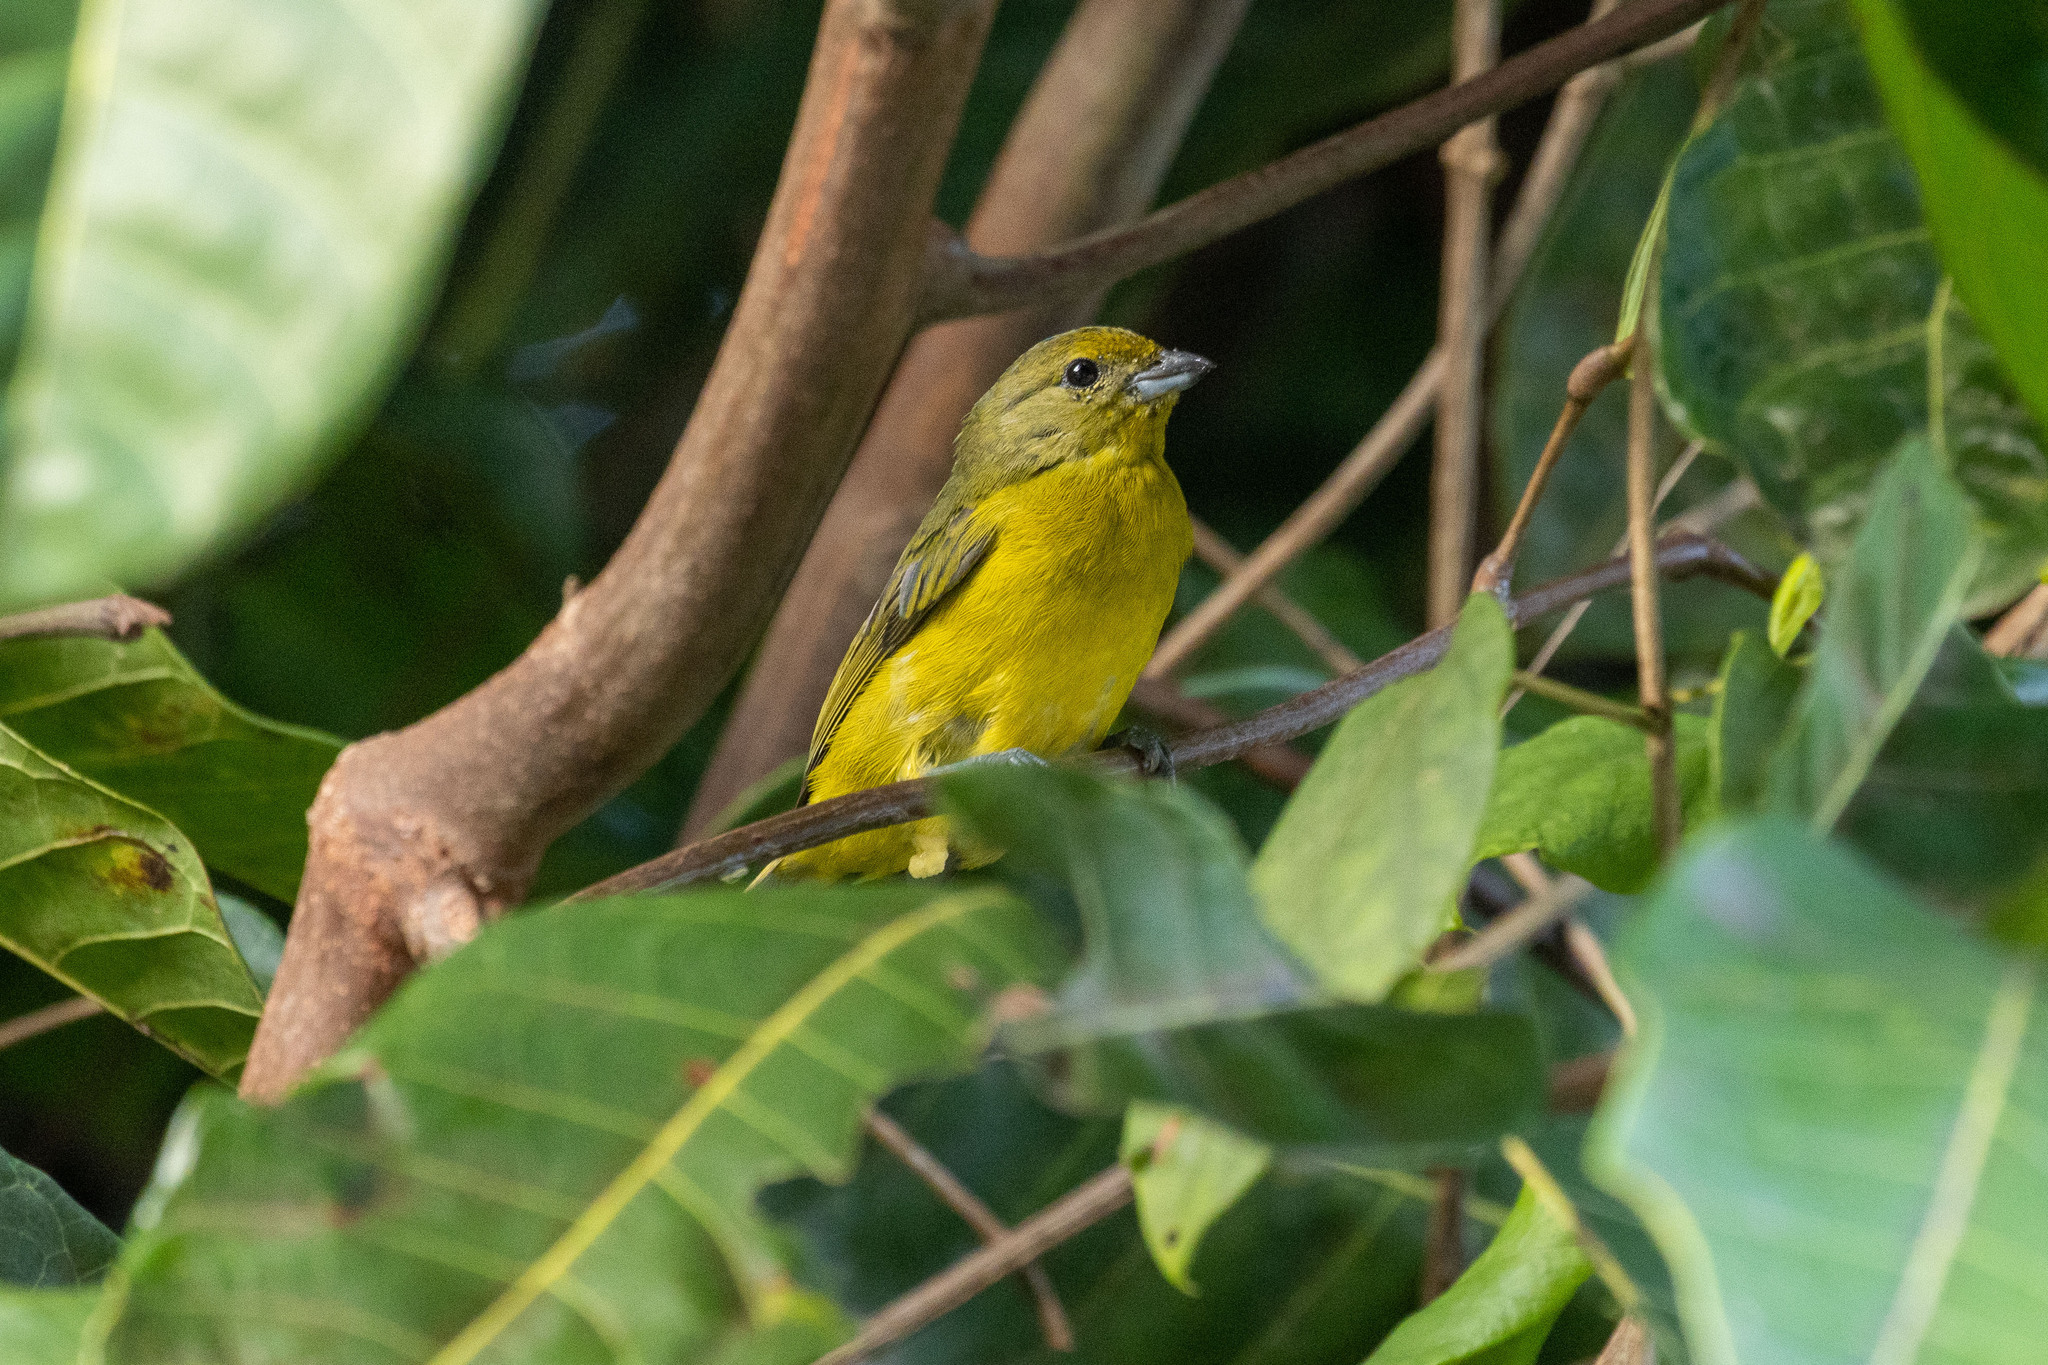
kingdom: Animalia
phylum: Chordata
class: Aves
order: Passeriformes
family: Fringillidae
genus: Euphonia
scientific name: Euphonia violacea
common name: Violaceous euphonia
